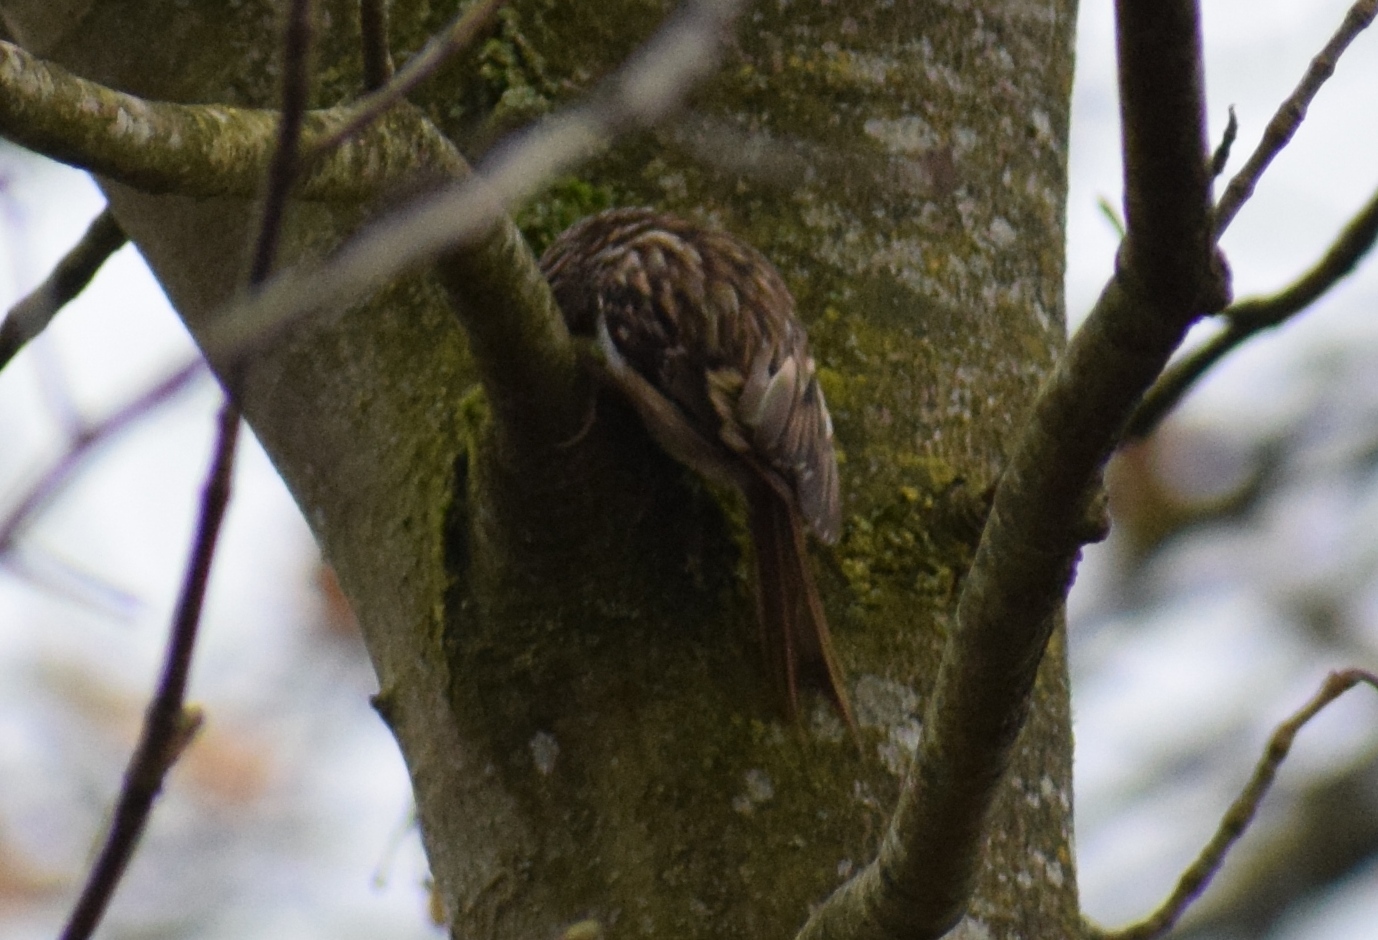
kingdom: Animalia
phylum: Chordata
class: Aves
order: Passeriformes
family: Certhiidae
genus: Certhia
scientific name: Certhia familiaris
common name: Eurasian treecreeper
